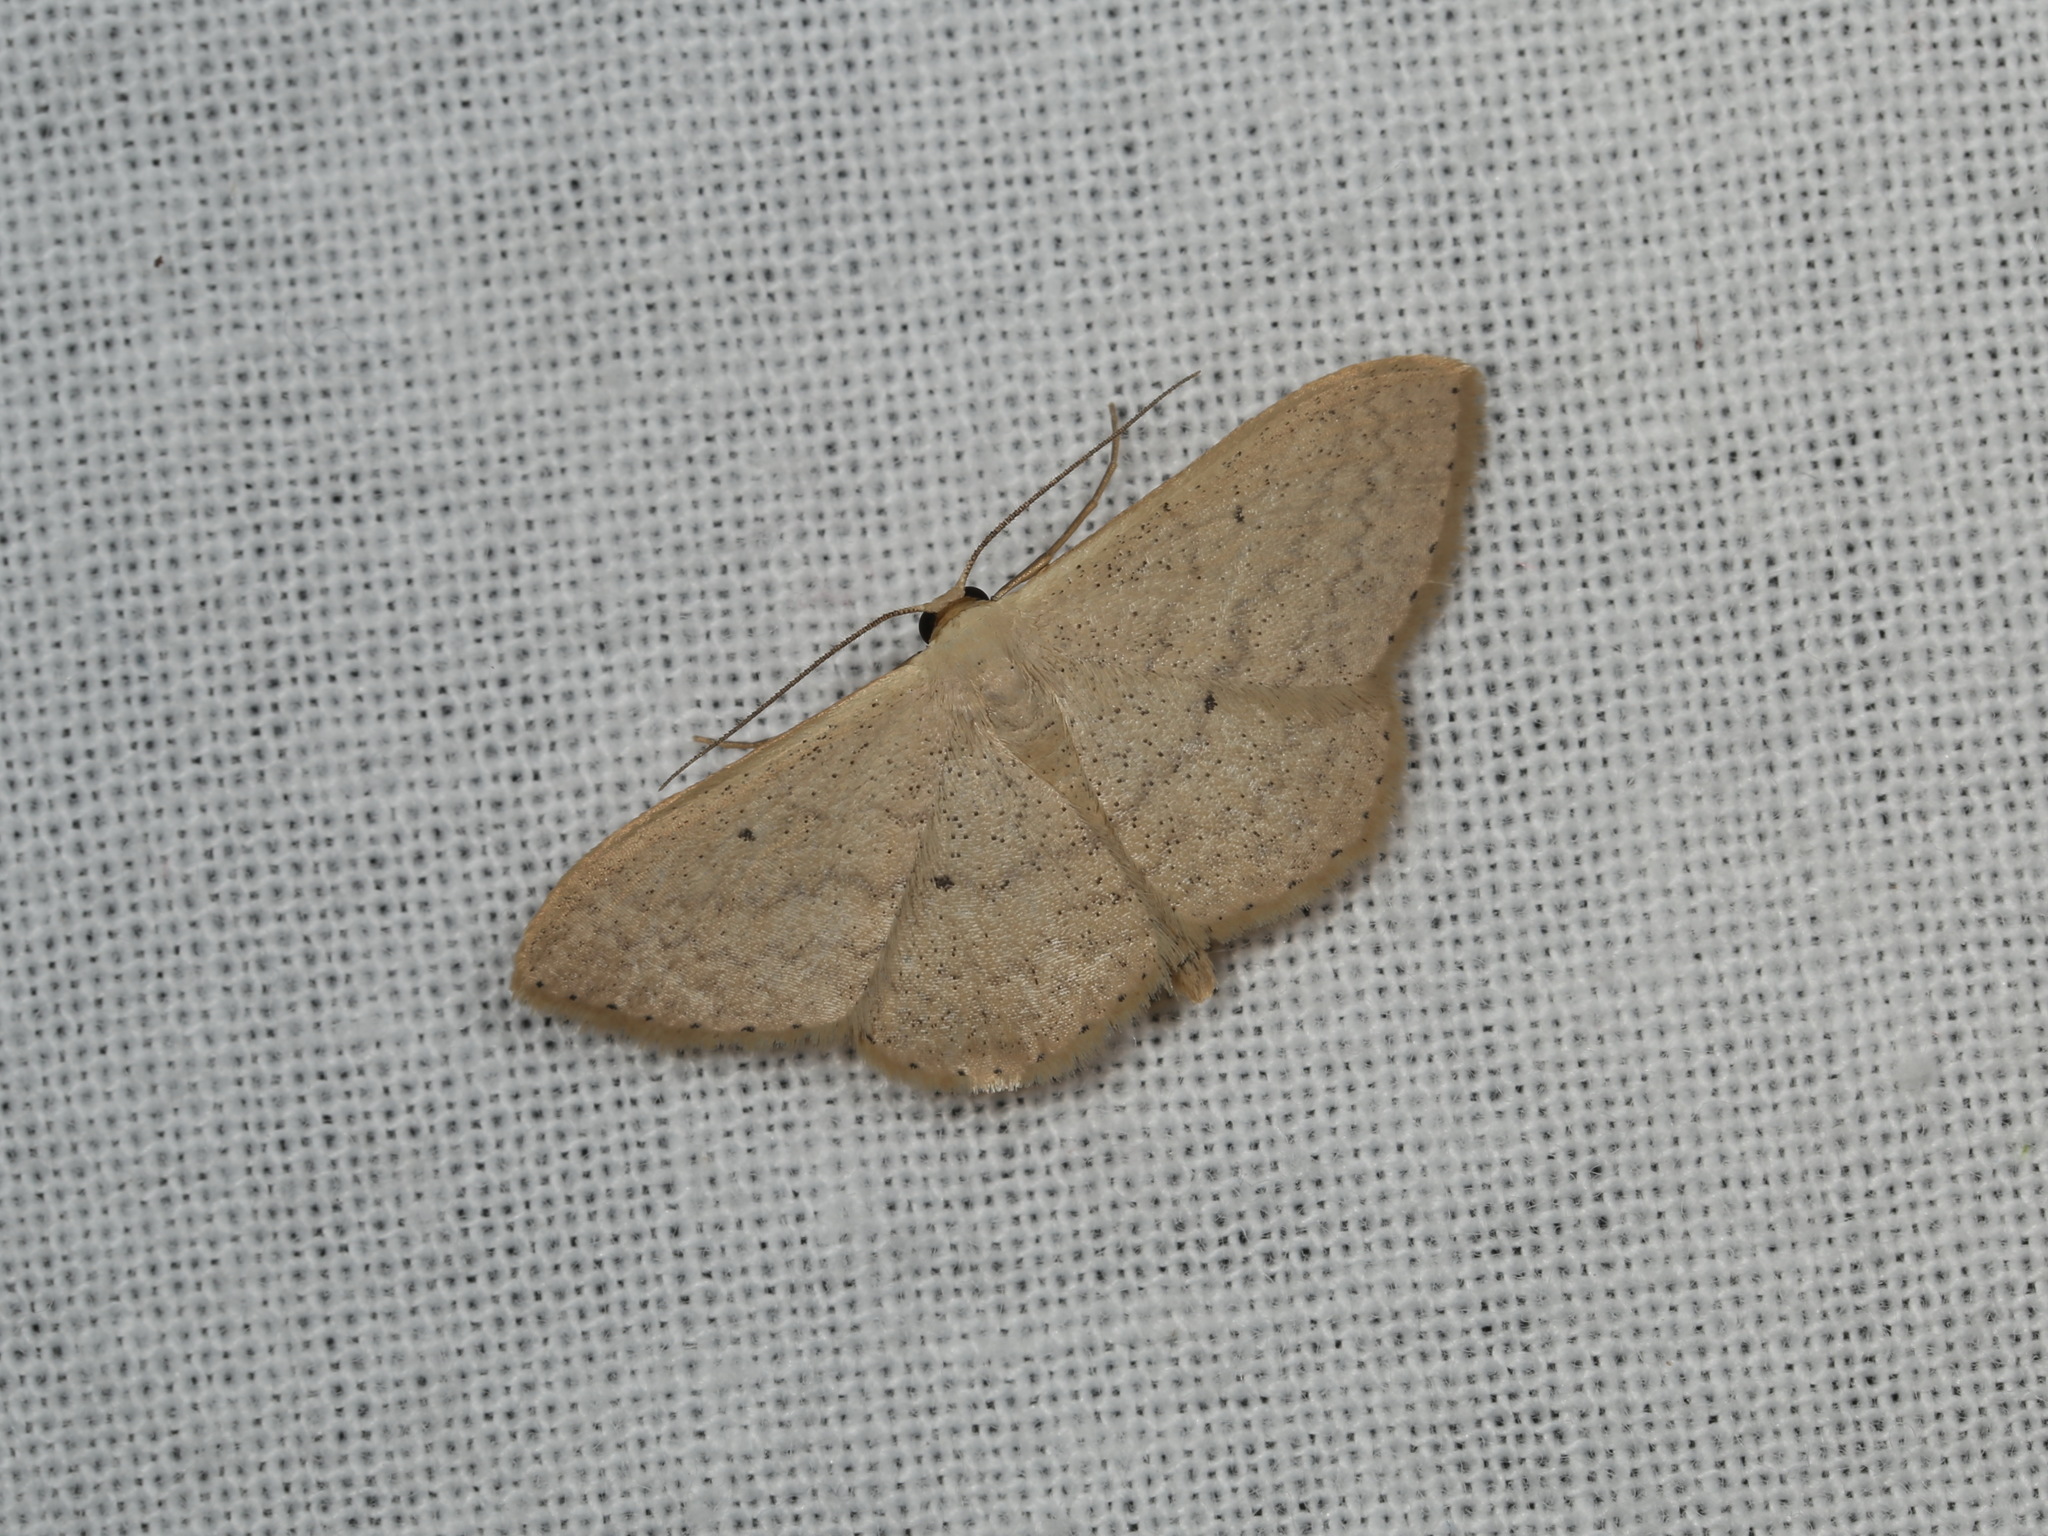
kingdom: Animalia
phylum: Arthropoda
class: Insecta
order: Lepidoptera
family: Geometridae
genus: Scopula
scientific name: Scopula optivata
